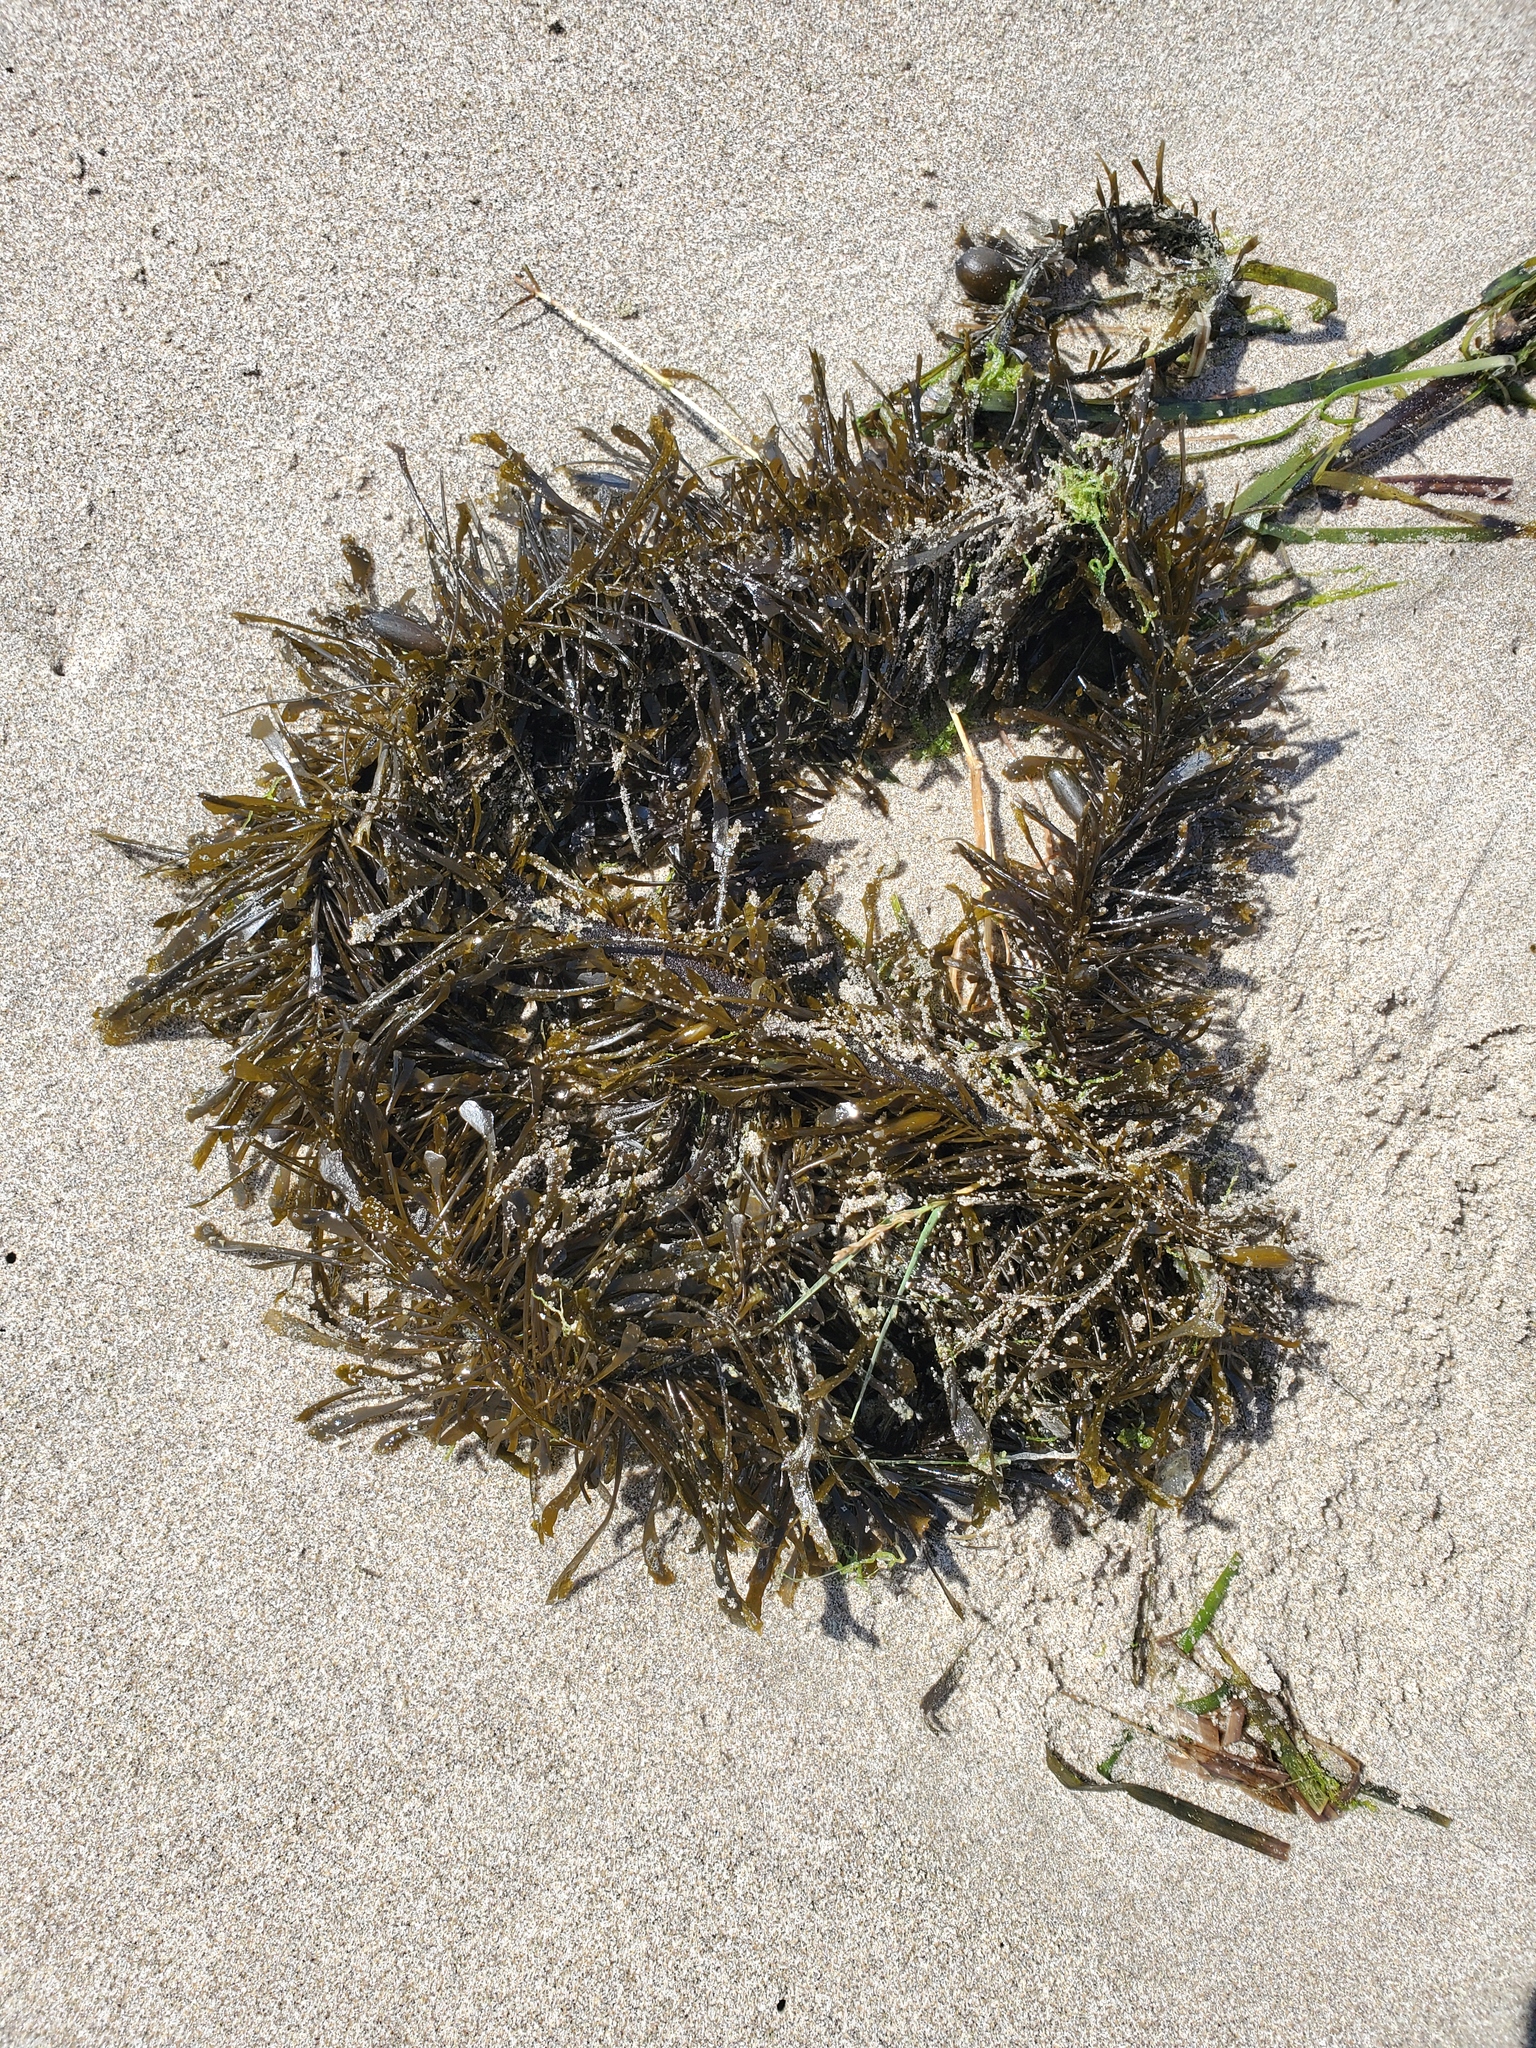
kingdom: Chromista
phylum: Ochrophyta
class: Phaeophyceae
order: Laminariales
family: Lessoniaceae
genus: Egregia
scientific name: Egregia menziesii
